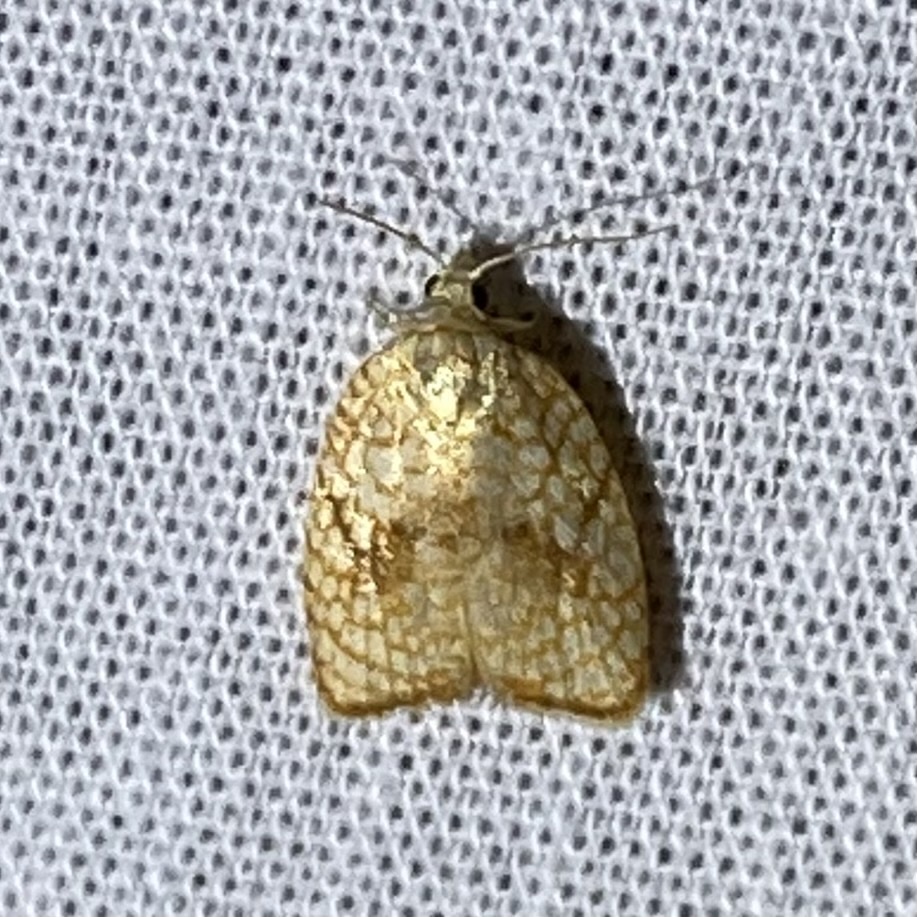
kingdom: Animalia
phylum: Arthropoda
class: Insecta
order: Lepidoptera
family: Tortricidae
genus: Acleris
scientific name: Acleris forsskaleana
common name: Maple button
